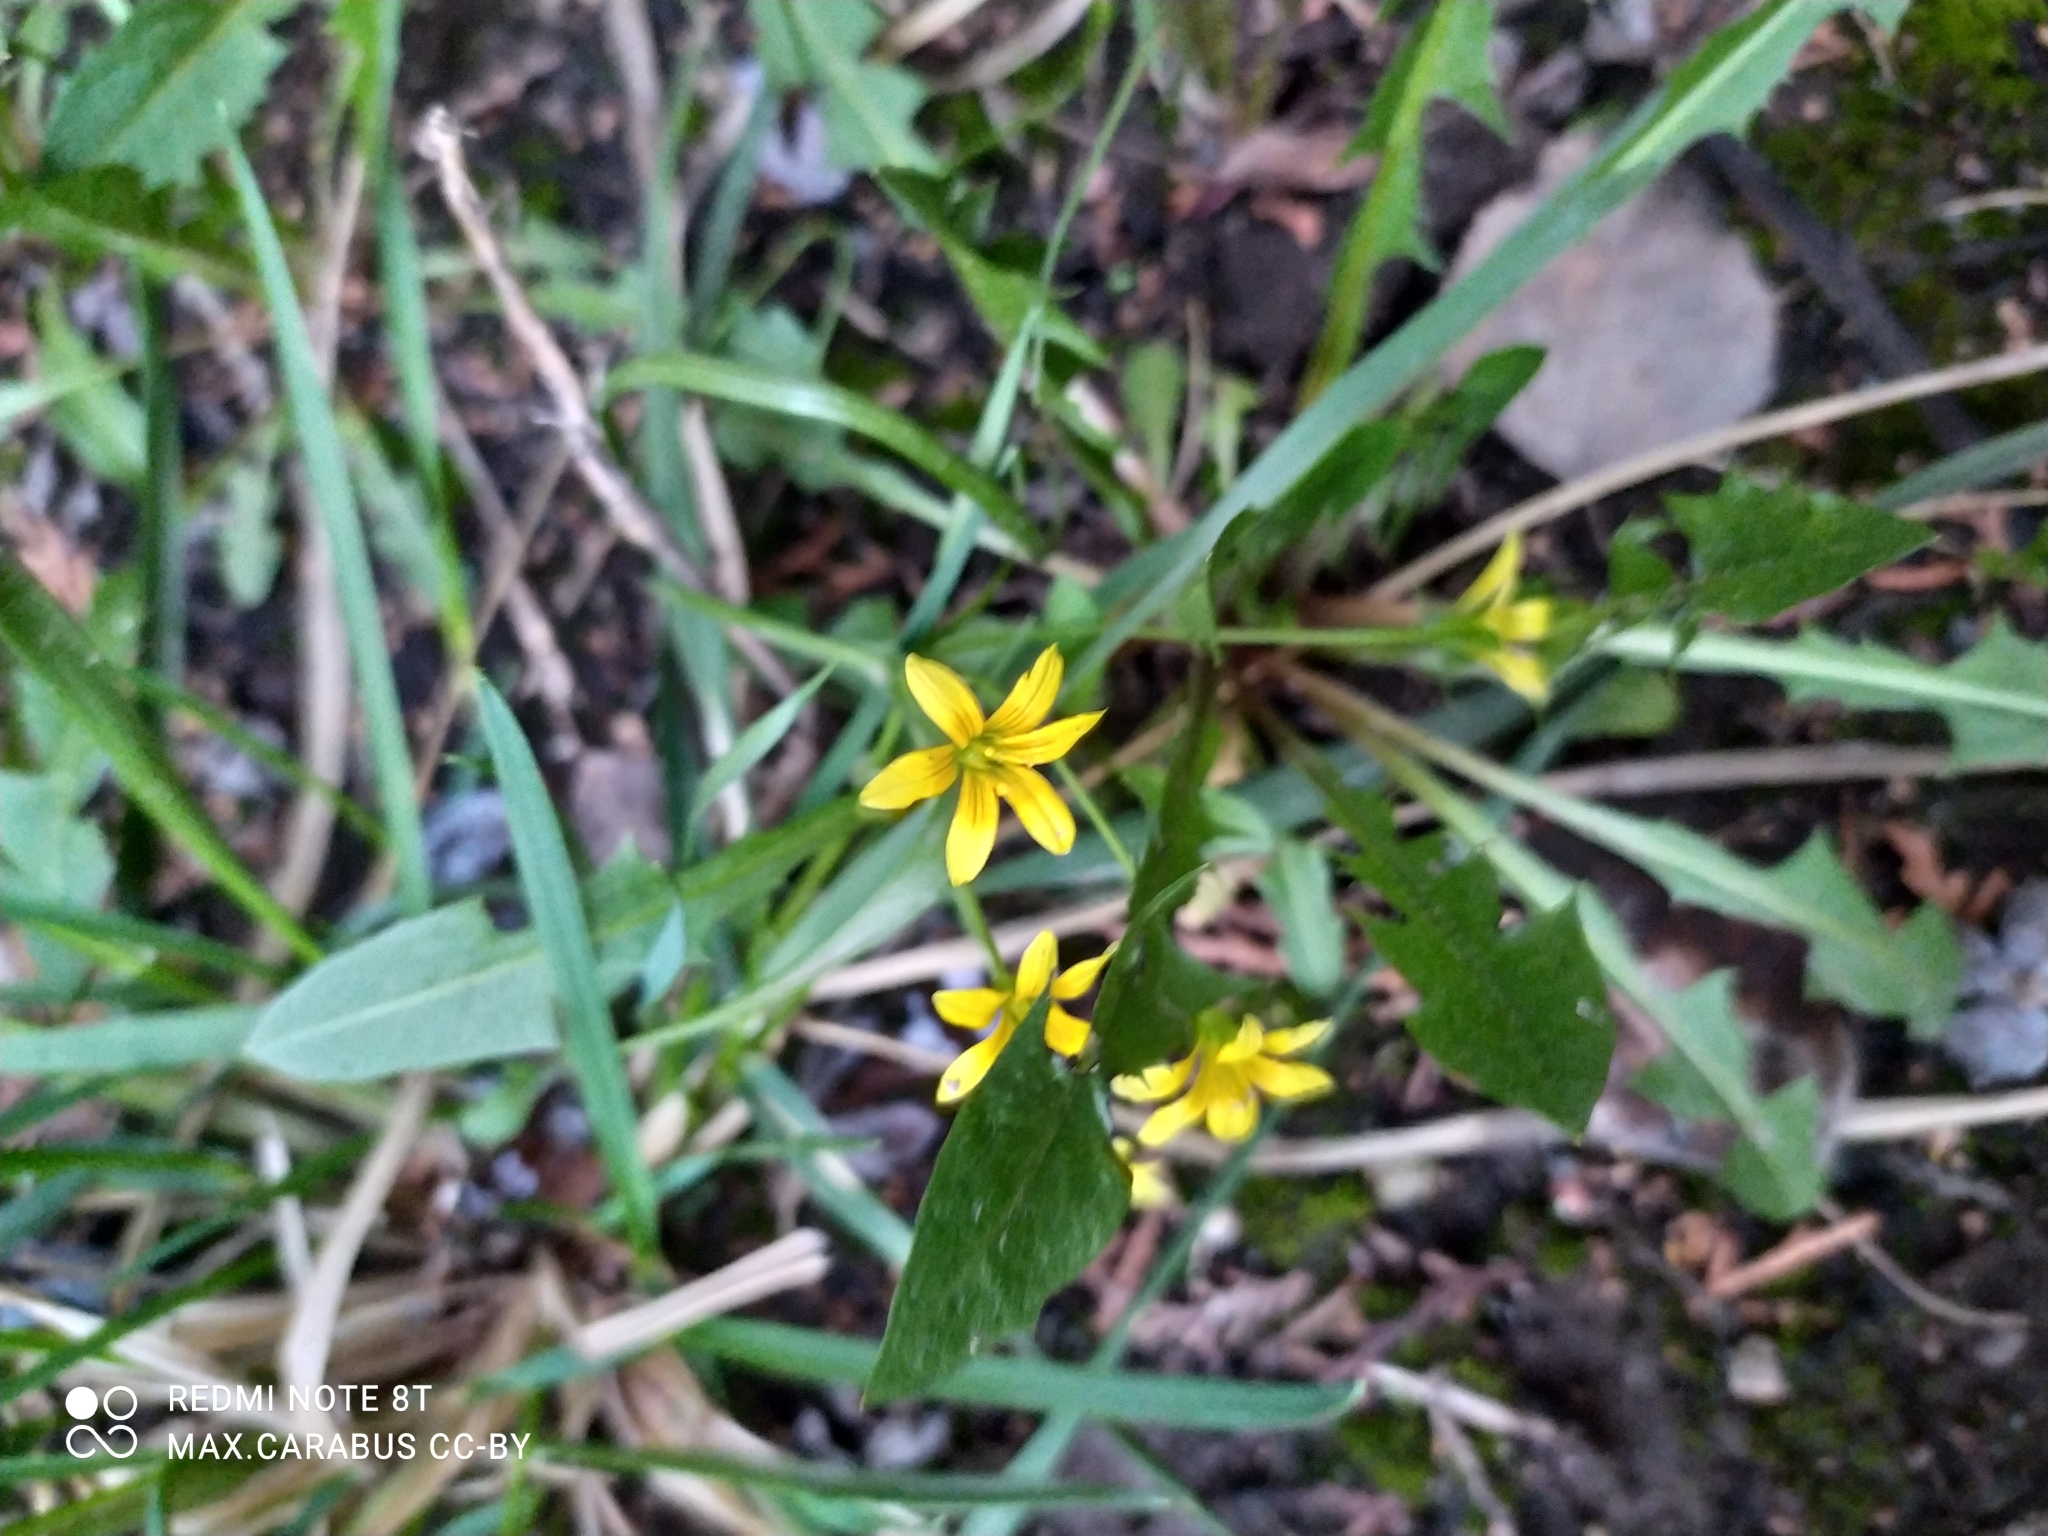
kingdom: Plantae
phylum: Tracheophyta
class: Liliopsida
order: Liliales
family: Liliaceae
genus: Gagea
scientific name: Gagea fragifera
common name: Lily
